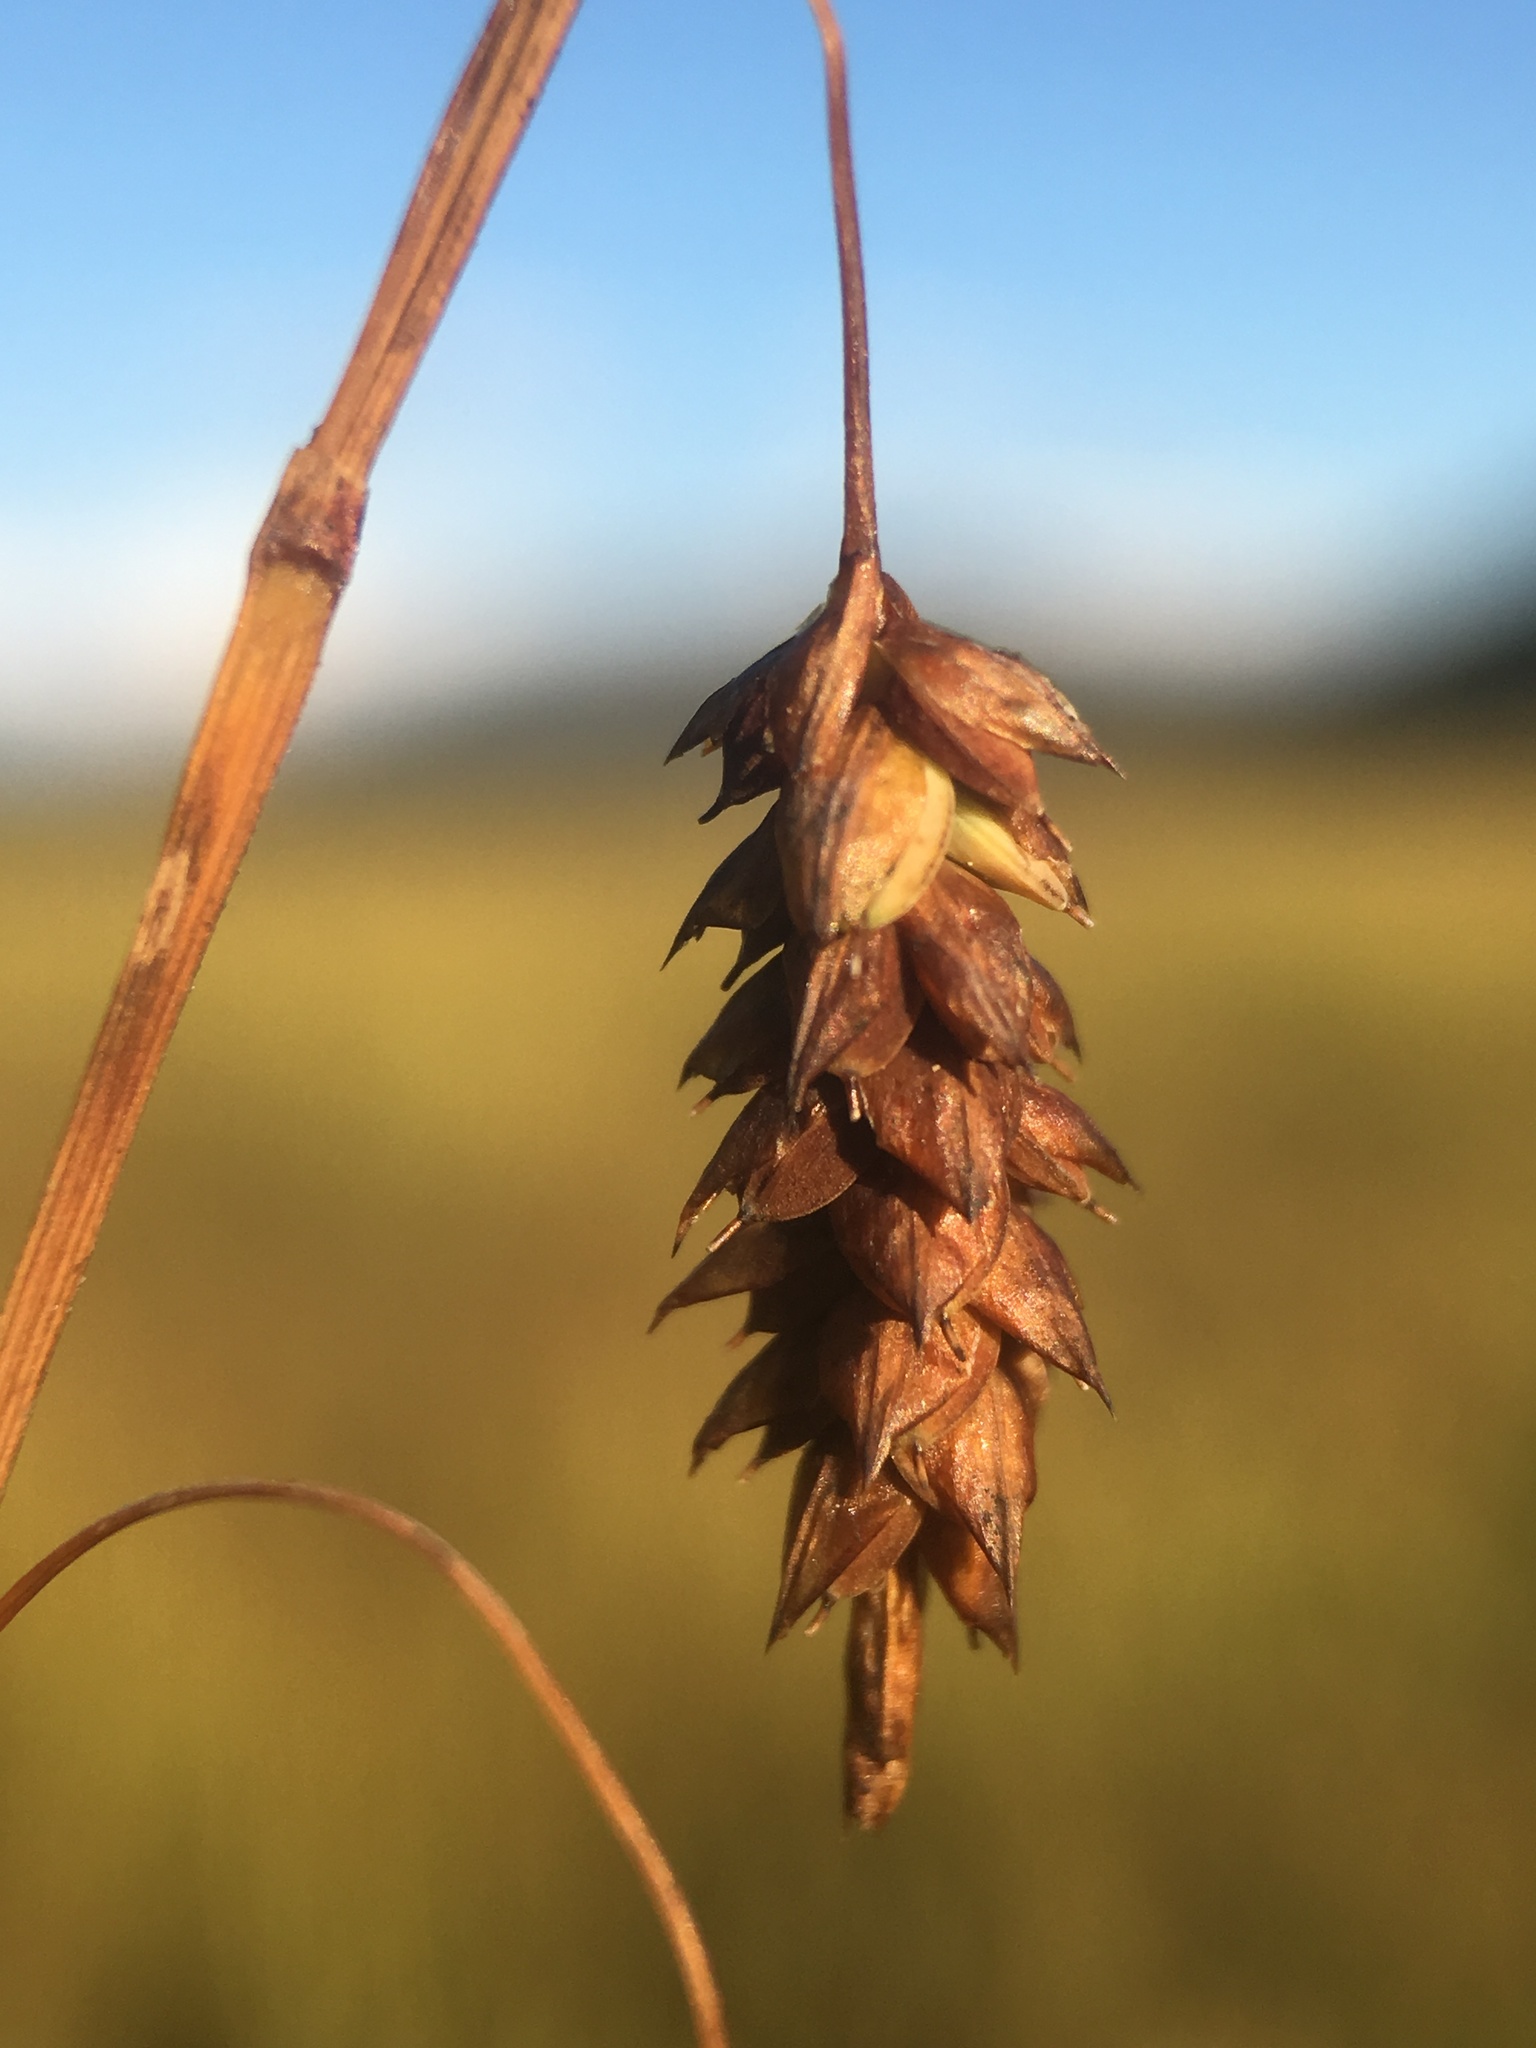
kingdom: Plantae
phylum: Tracheophyta
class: Liliopsida
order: Poales
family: Cyperaceae
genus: Carex
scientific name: Carex limosa
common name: Bog sedge
